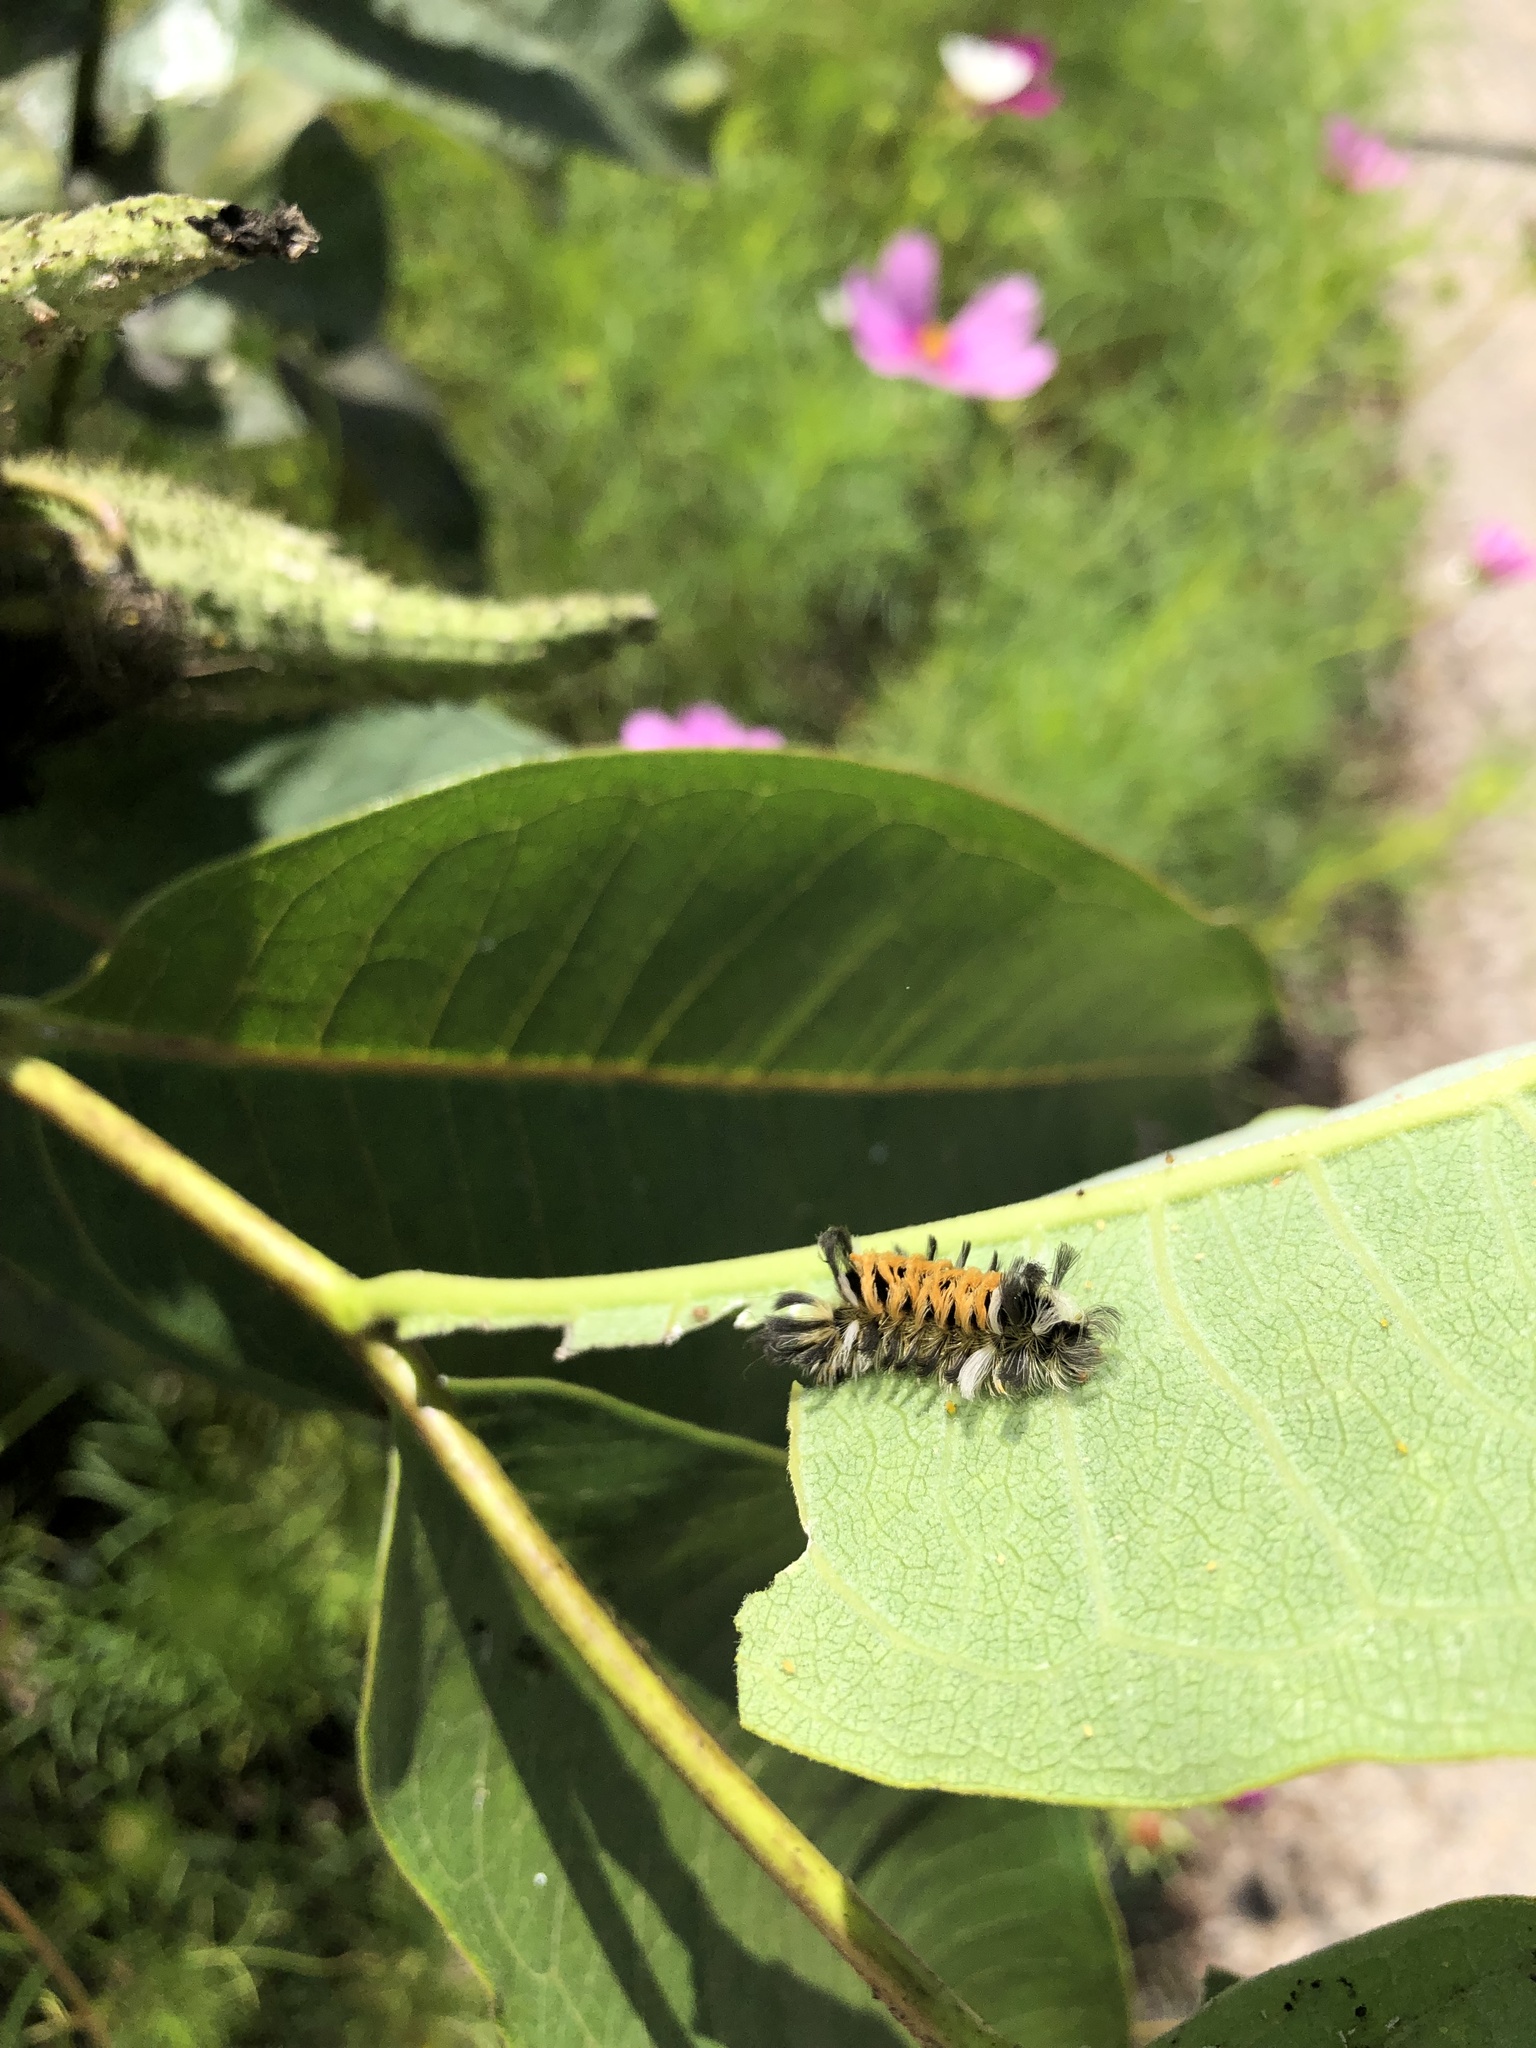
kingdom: Animalia
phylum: Arthropoda
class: Insecta
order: Lepidoptera
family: Erebidae
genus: Euchaetes
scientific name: Euchaetes egle
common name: Milkweed tussock moth
